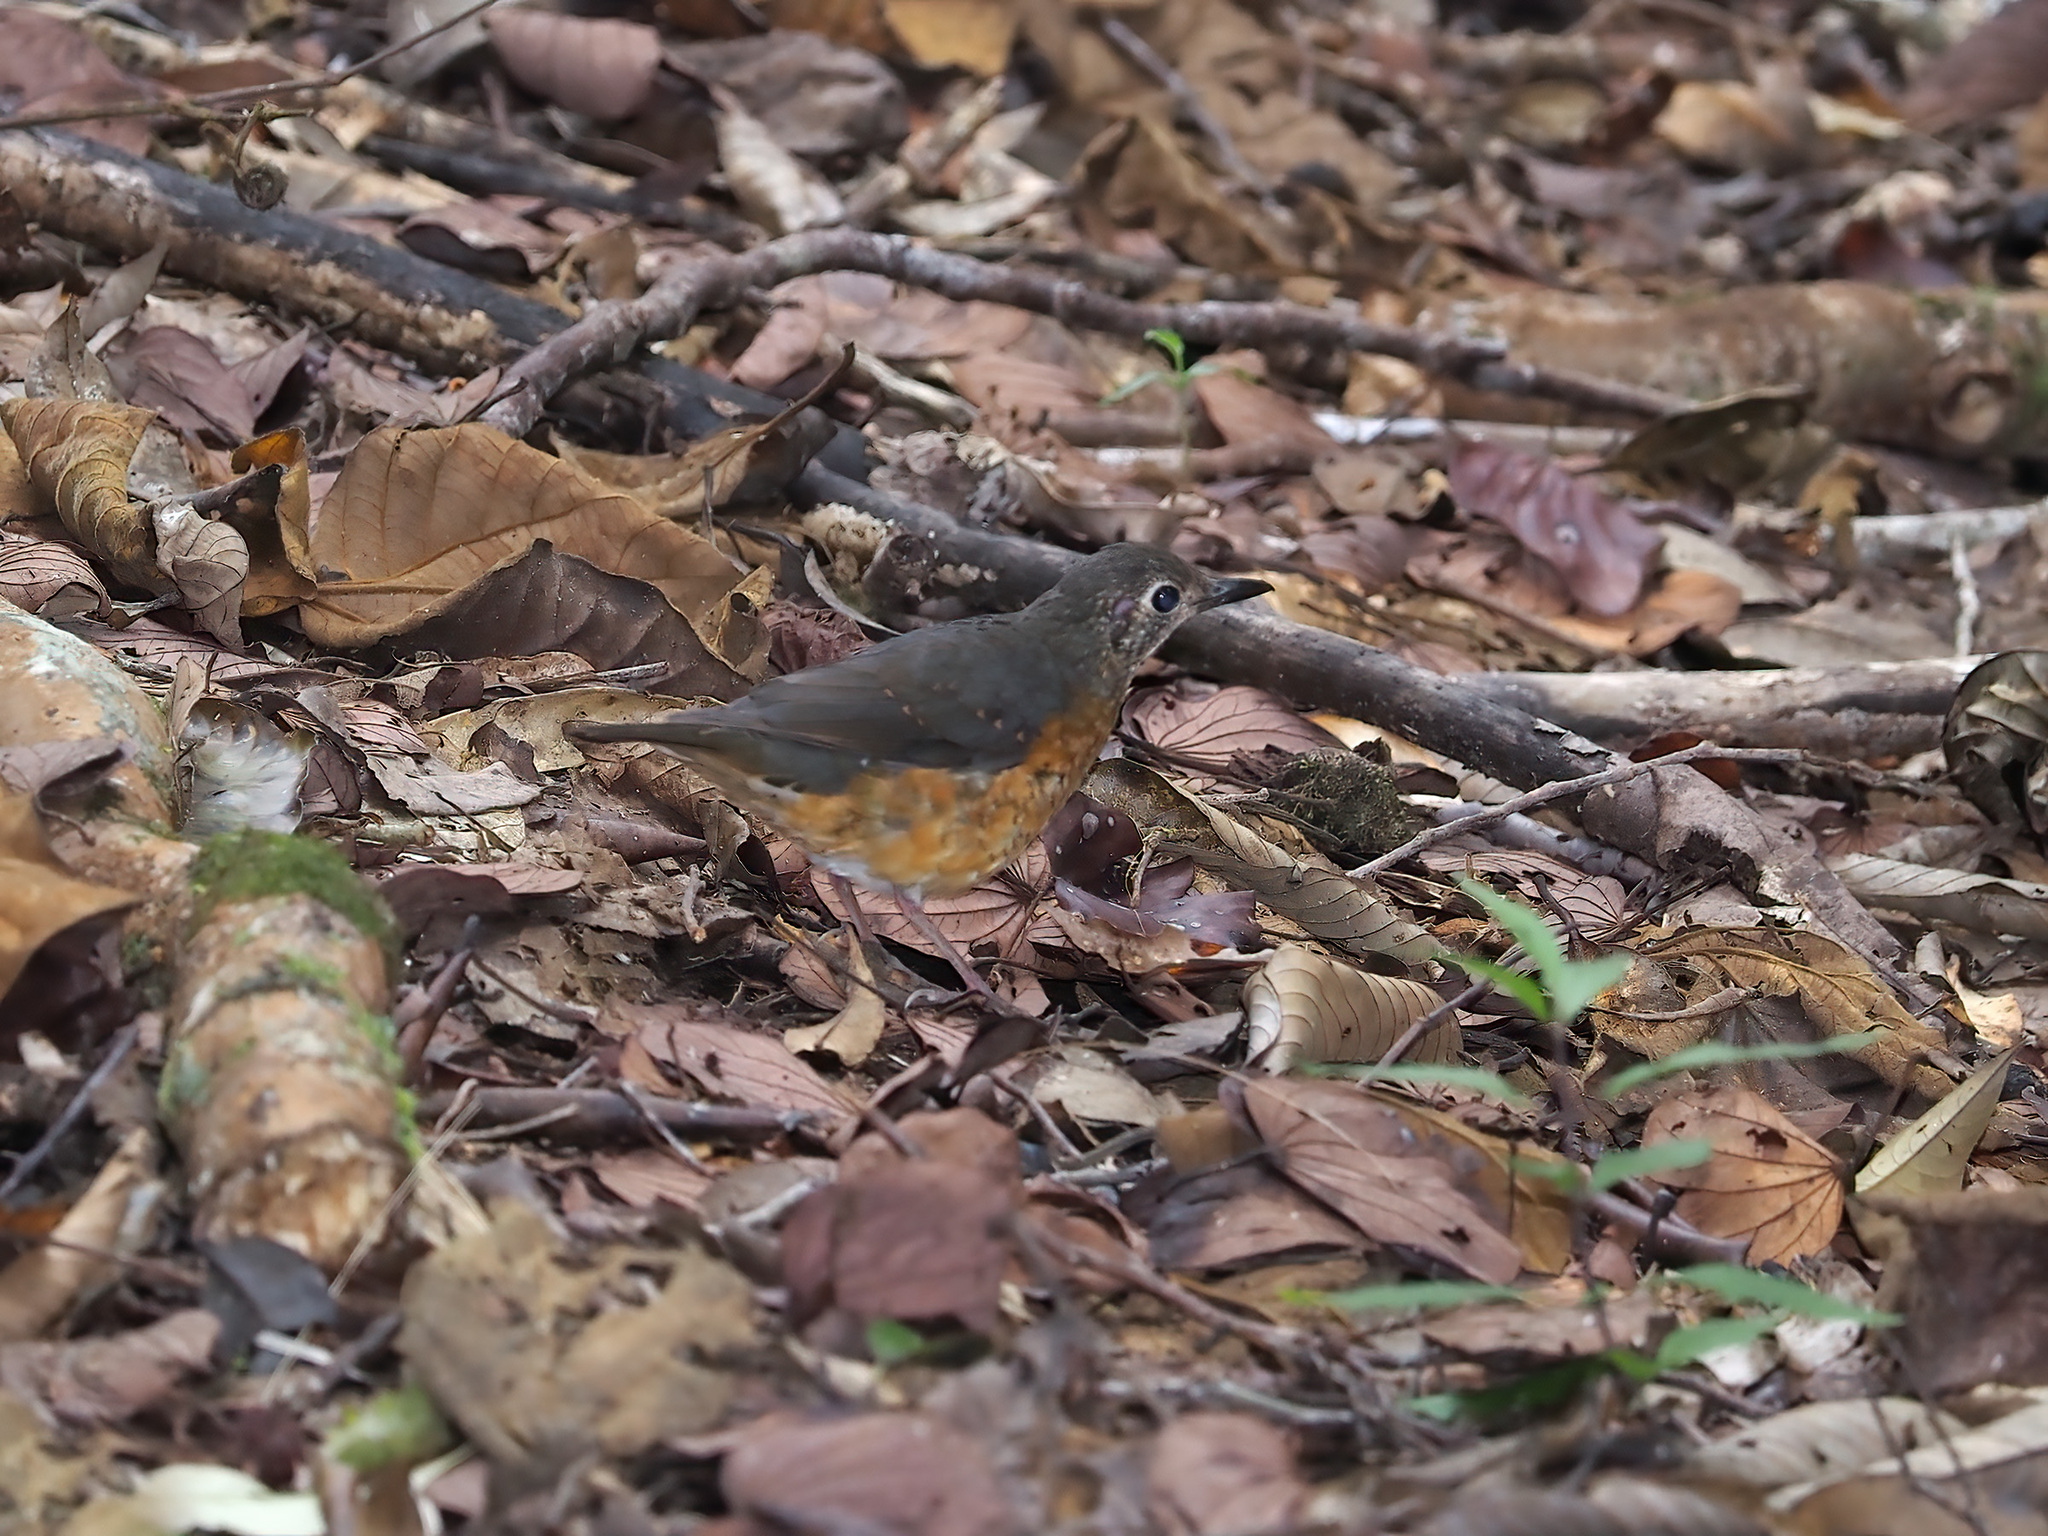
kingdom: Animalia
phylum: Chordata
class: Aves
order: Passeriformes
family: Turdidae
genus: Zoothera
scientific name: Zoothera everetti
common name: Everett's thrush
